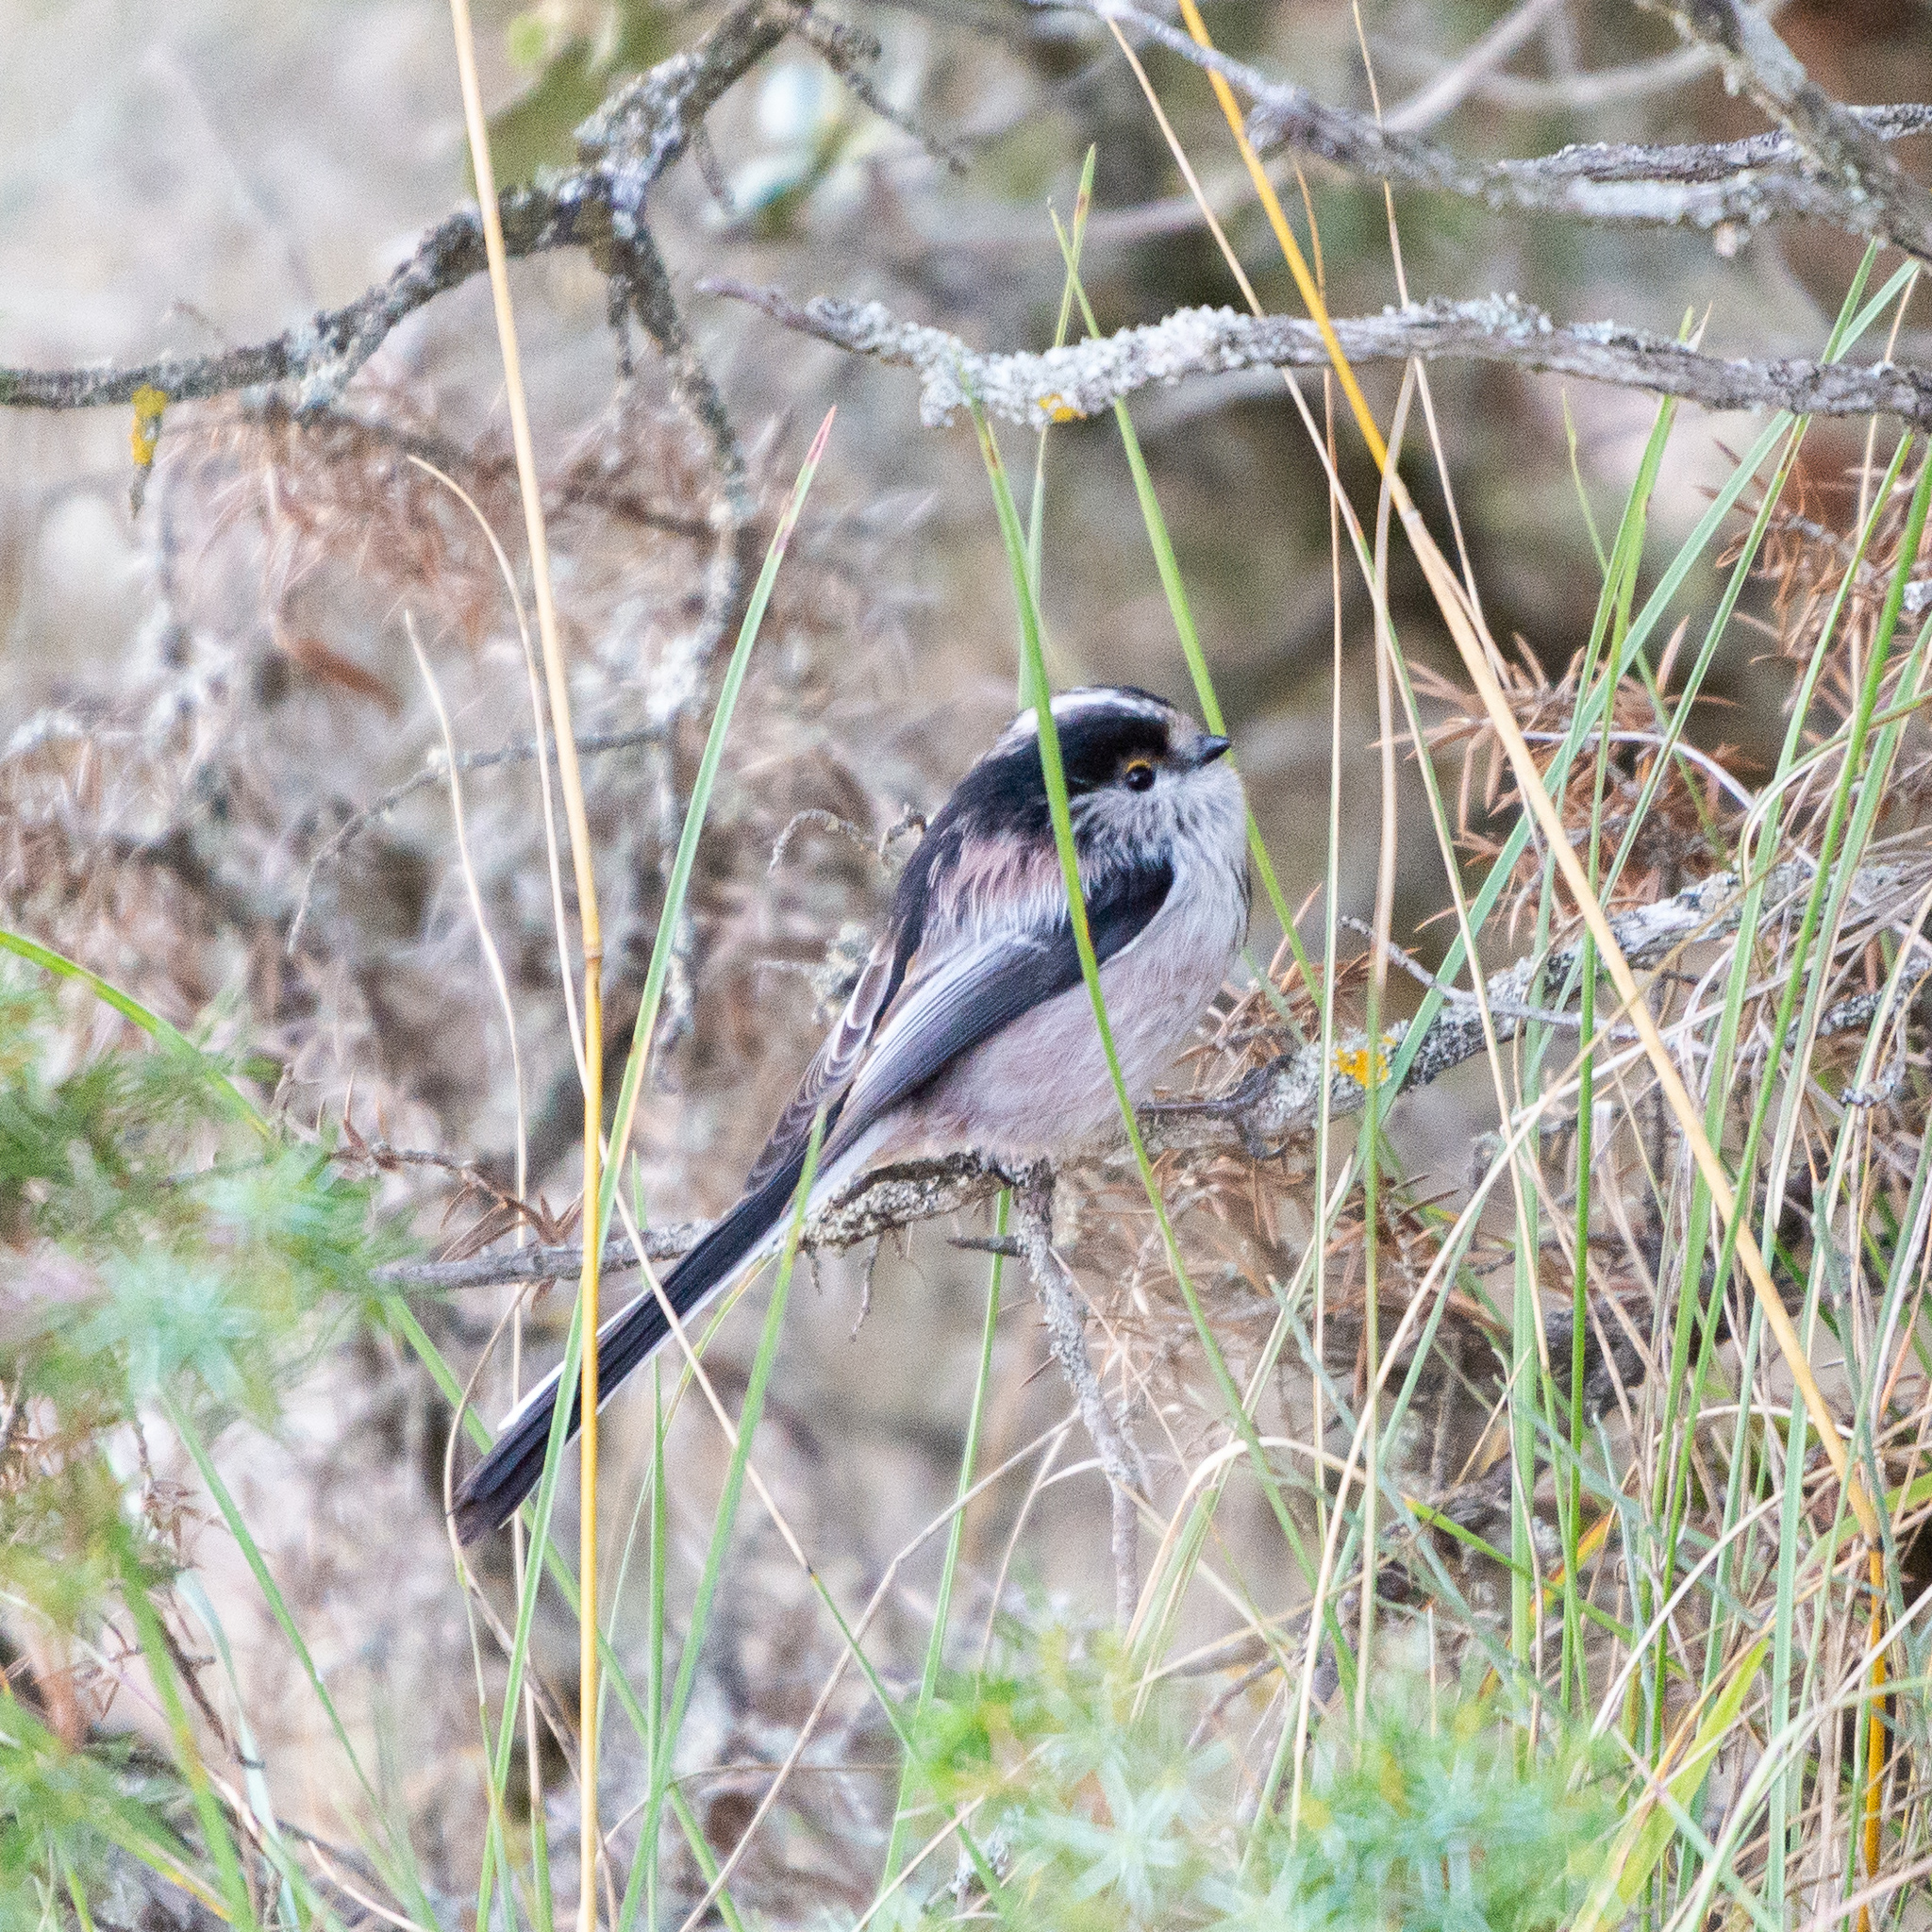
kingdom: Animalia
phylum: Chordata
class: Aves
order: Passeriformes
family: Aegithalidae
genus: Aegithalos
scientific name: Aegithalos caudatus
